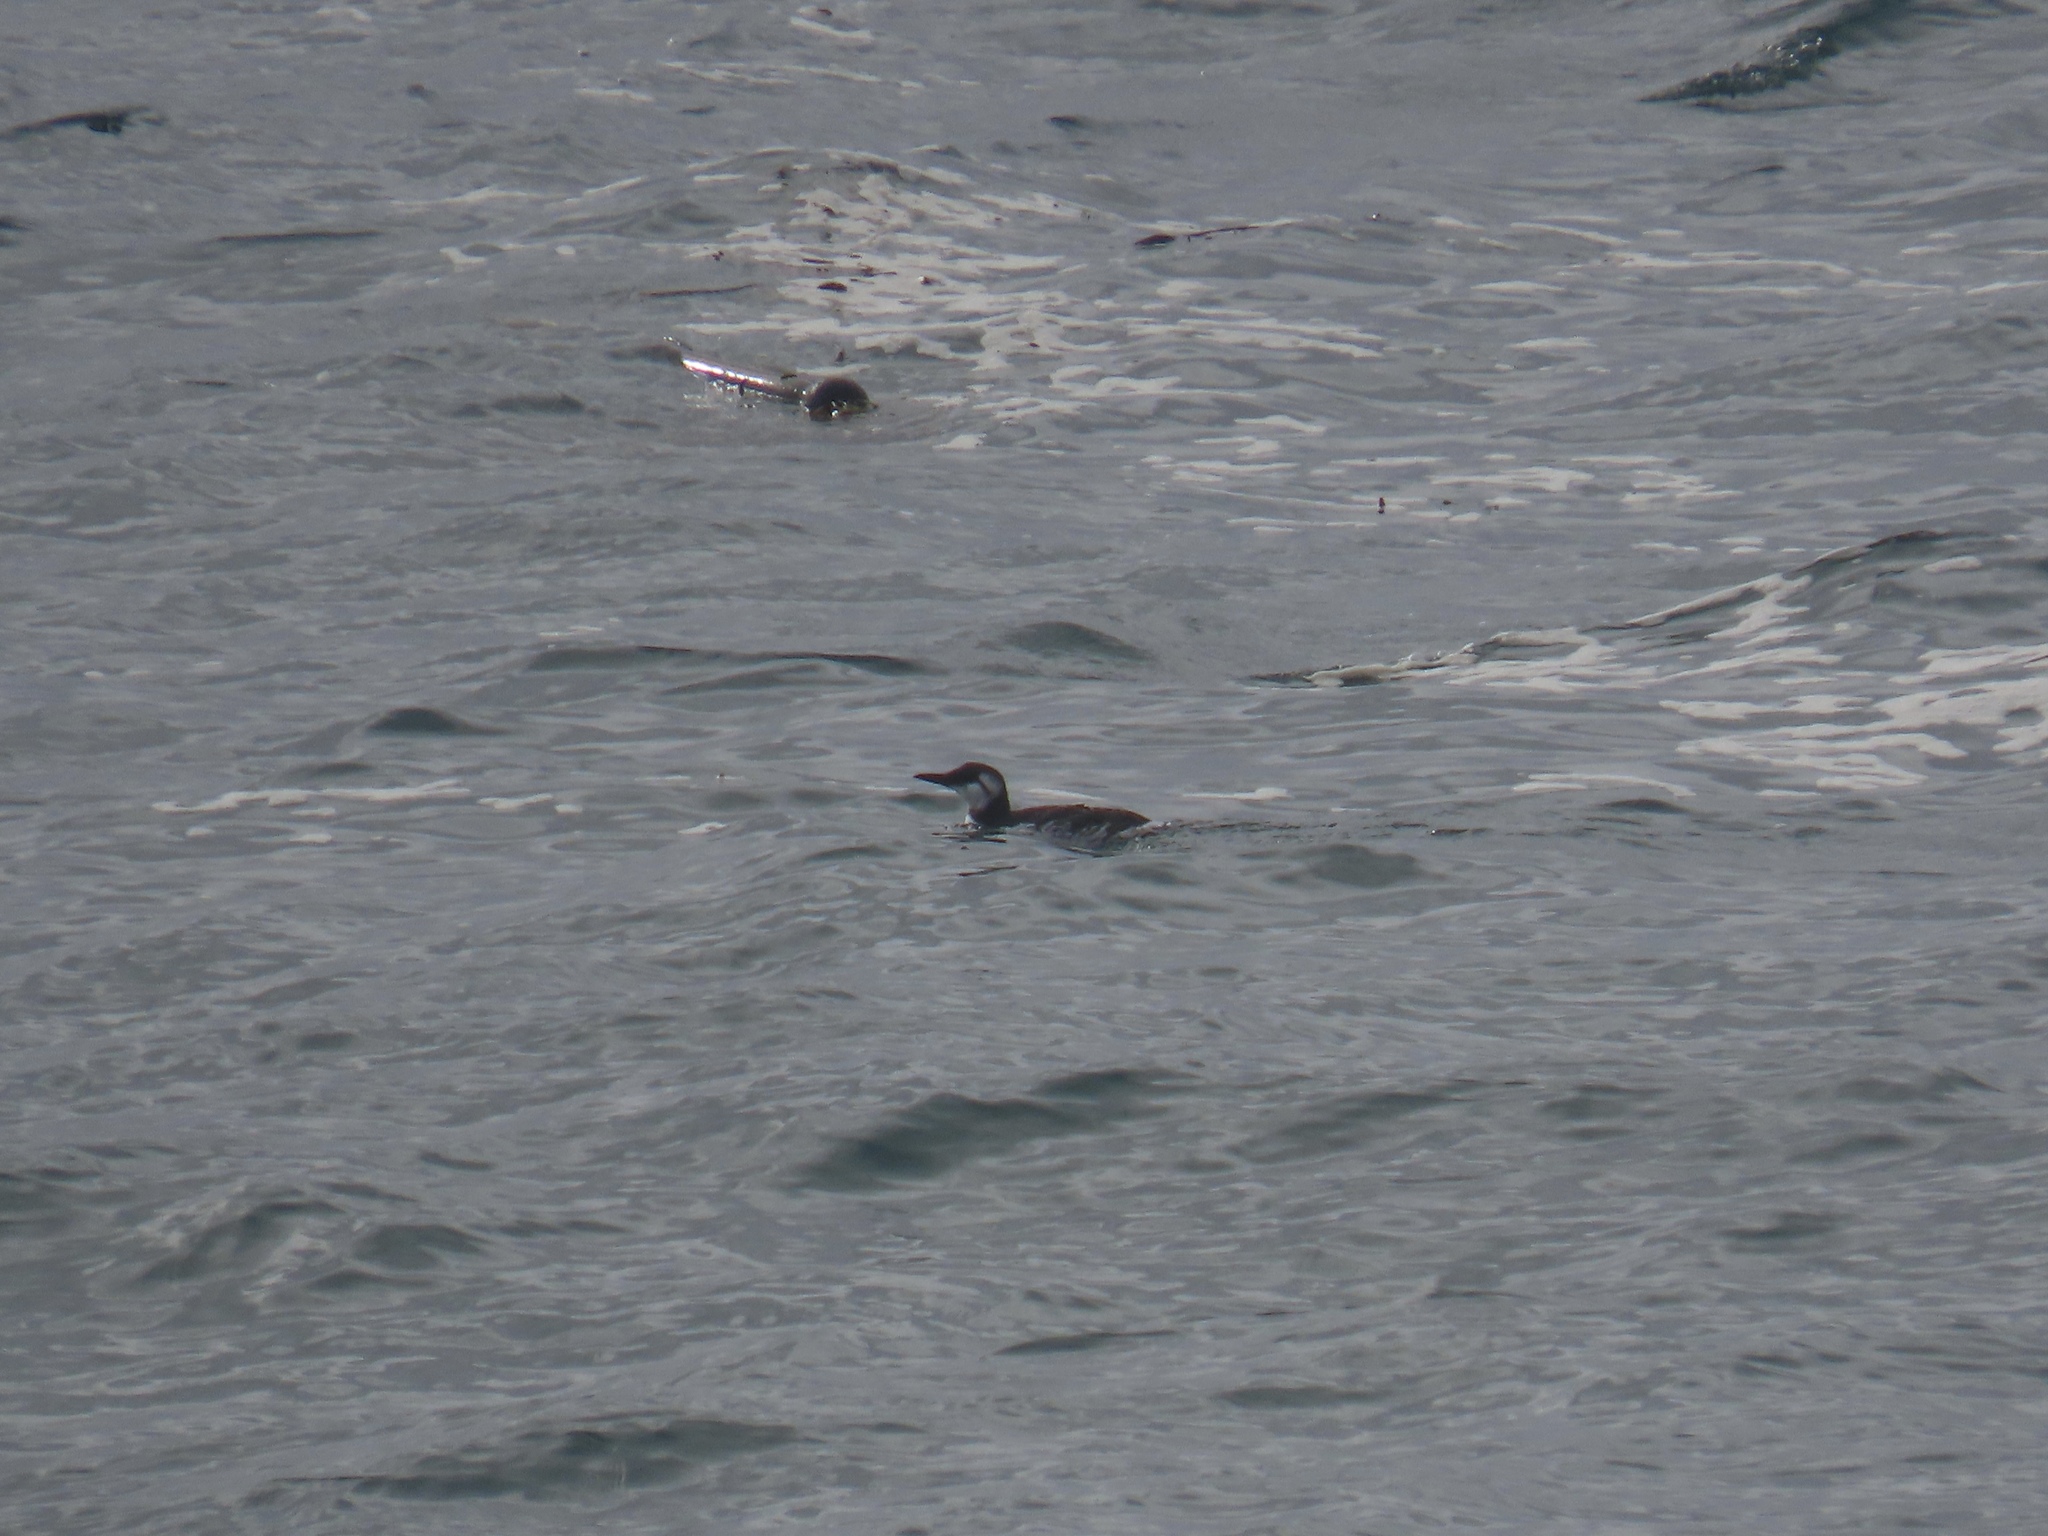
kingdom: Animalia
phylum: Chordata
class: Aves
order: Charadriiformes
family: Alcidae
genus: Uria
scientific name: Uria aalge
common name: Common murre
